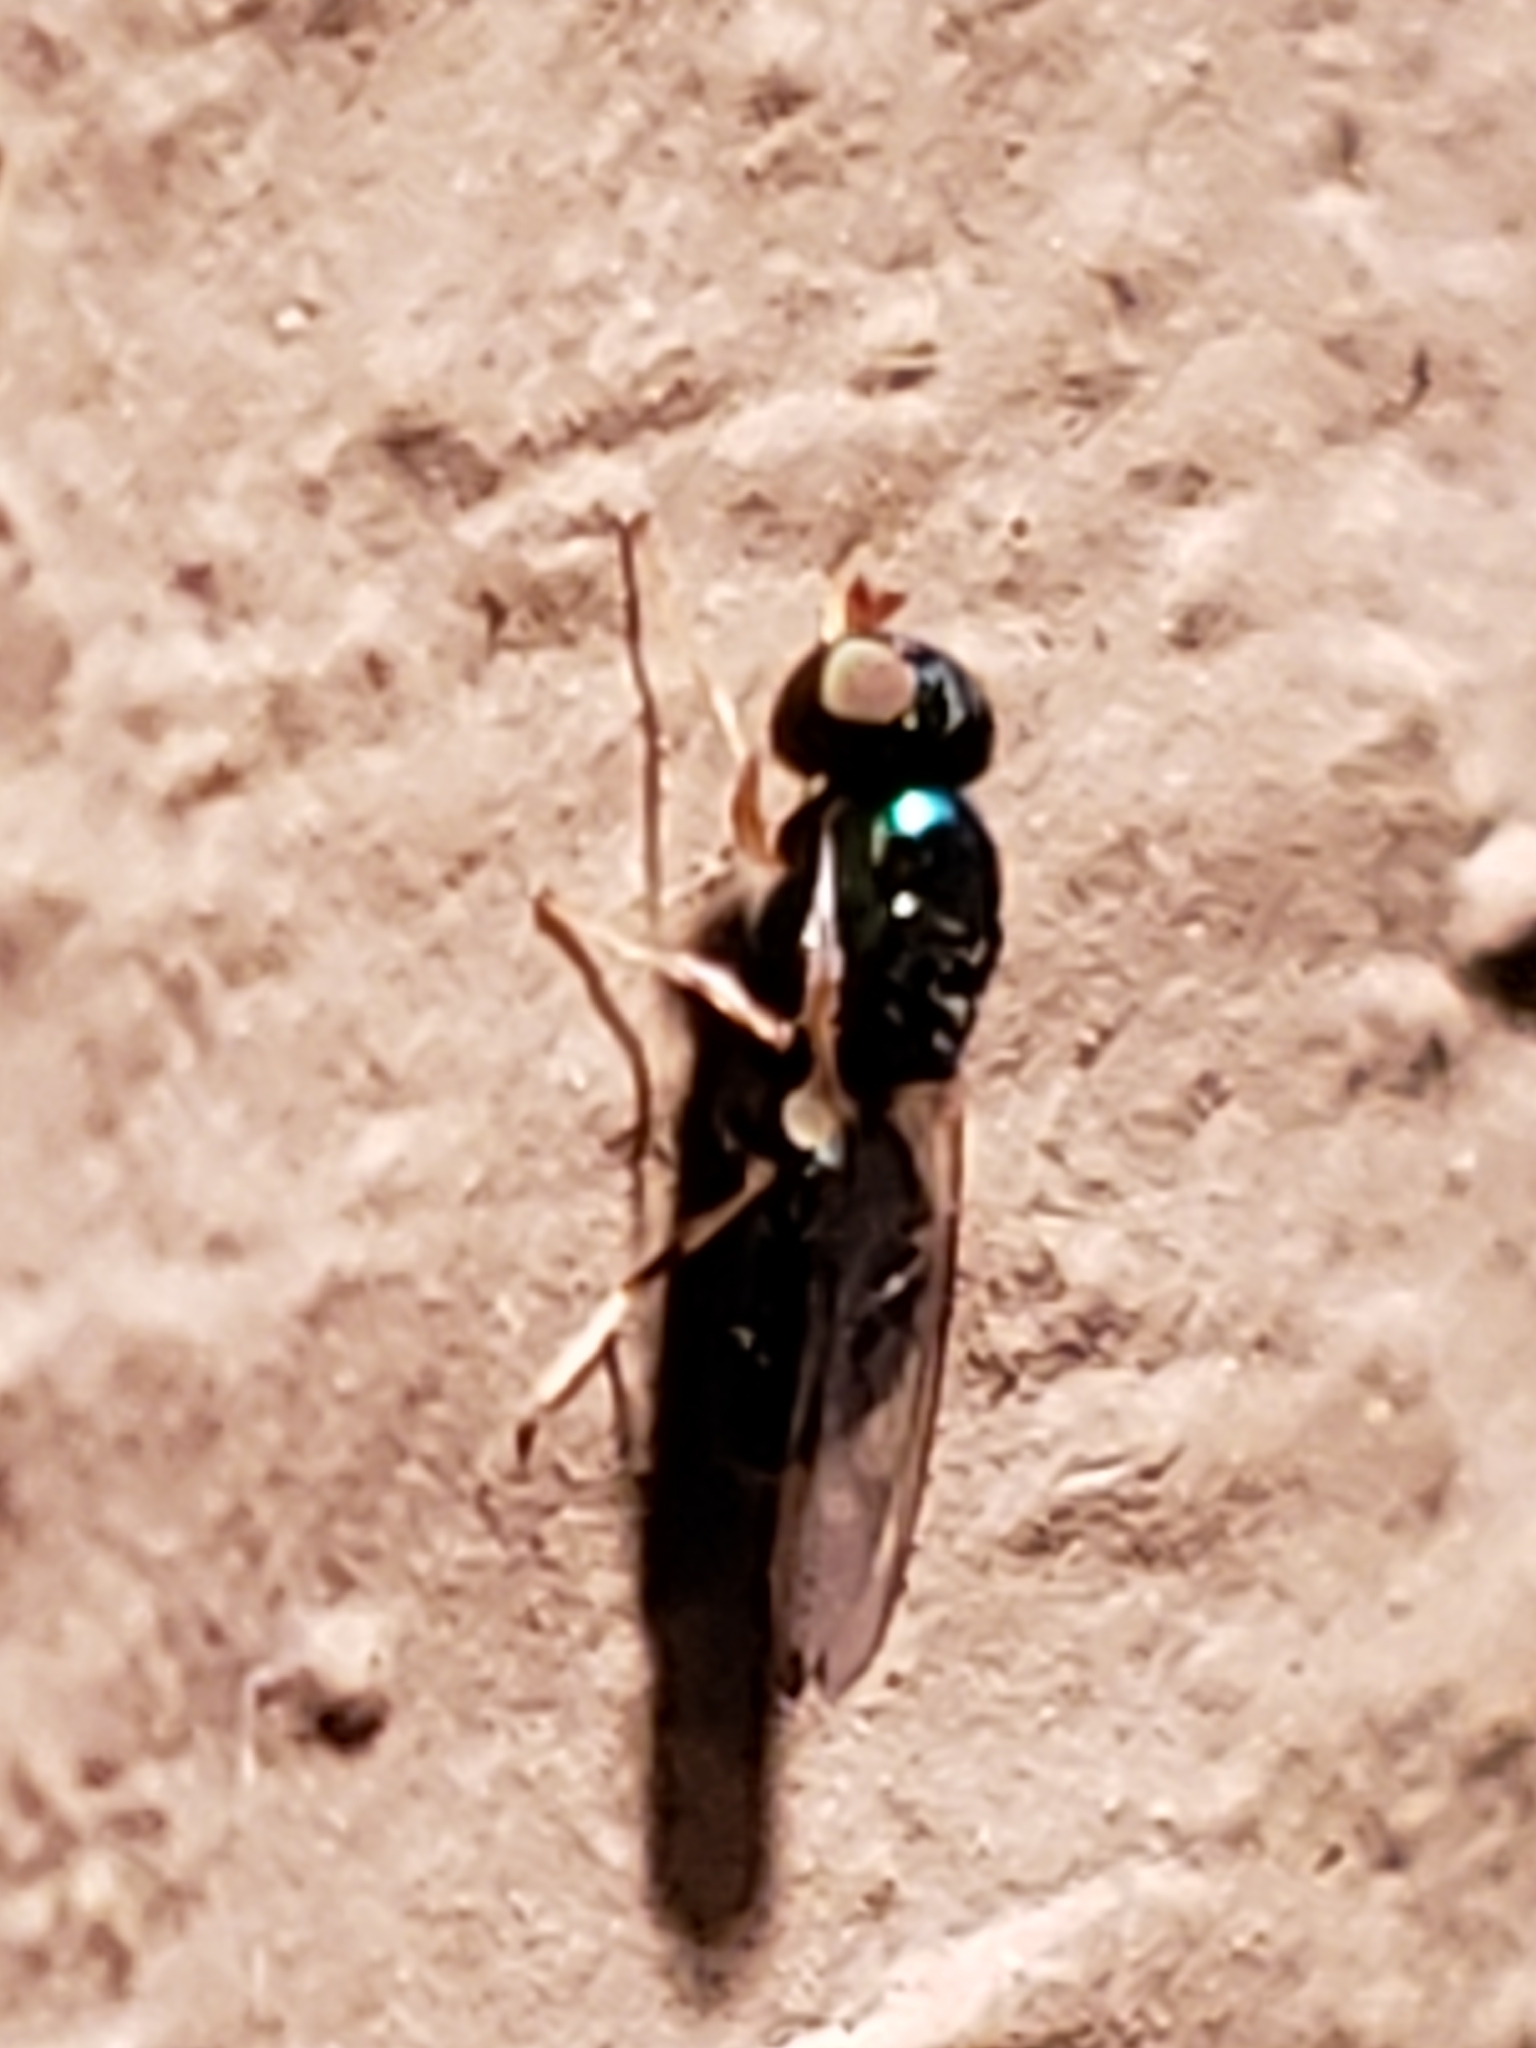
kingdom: Animalia
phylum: Arthropoda
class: Insecta
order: Diptera
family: Stratiomyidae
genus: Microchrysa
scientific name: Microchrysa flaviventris
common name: Soldier fly
